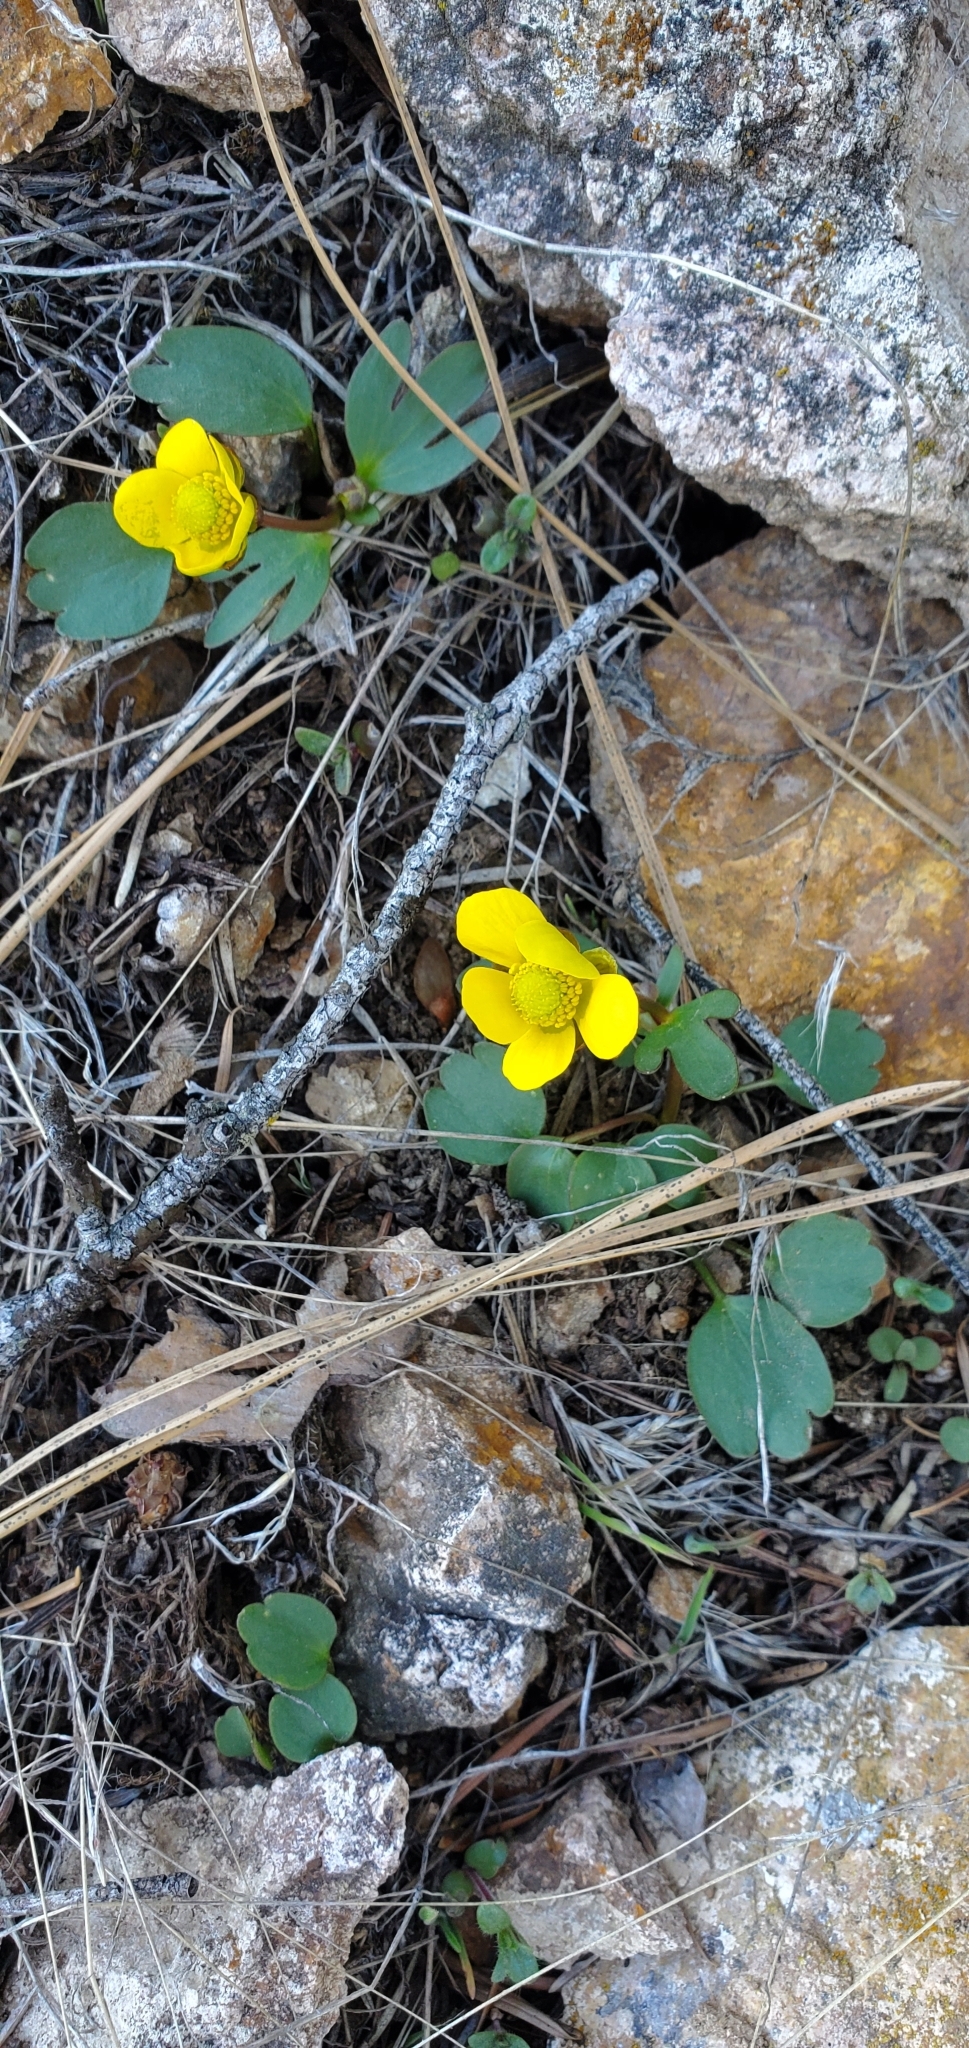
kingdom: Plantae
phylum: Tracheophyta
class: Magnoliopsida
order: Ranunculales
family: Ranunculaceae
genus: Ranunculus
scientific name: Ranunculus glaberrimus
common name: Sagebrush buttercup
